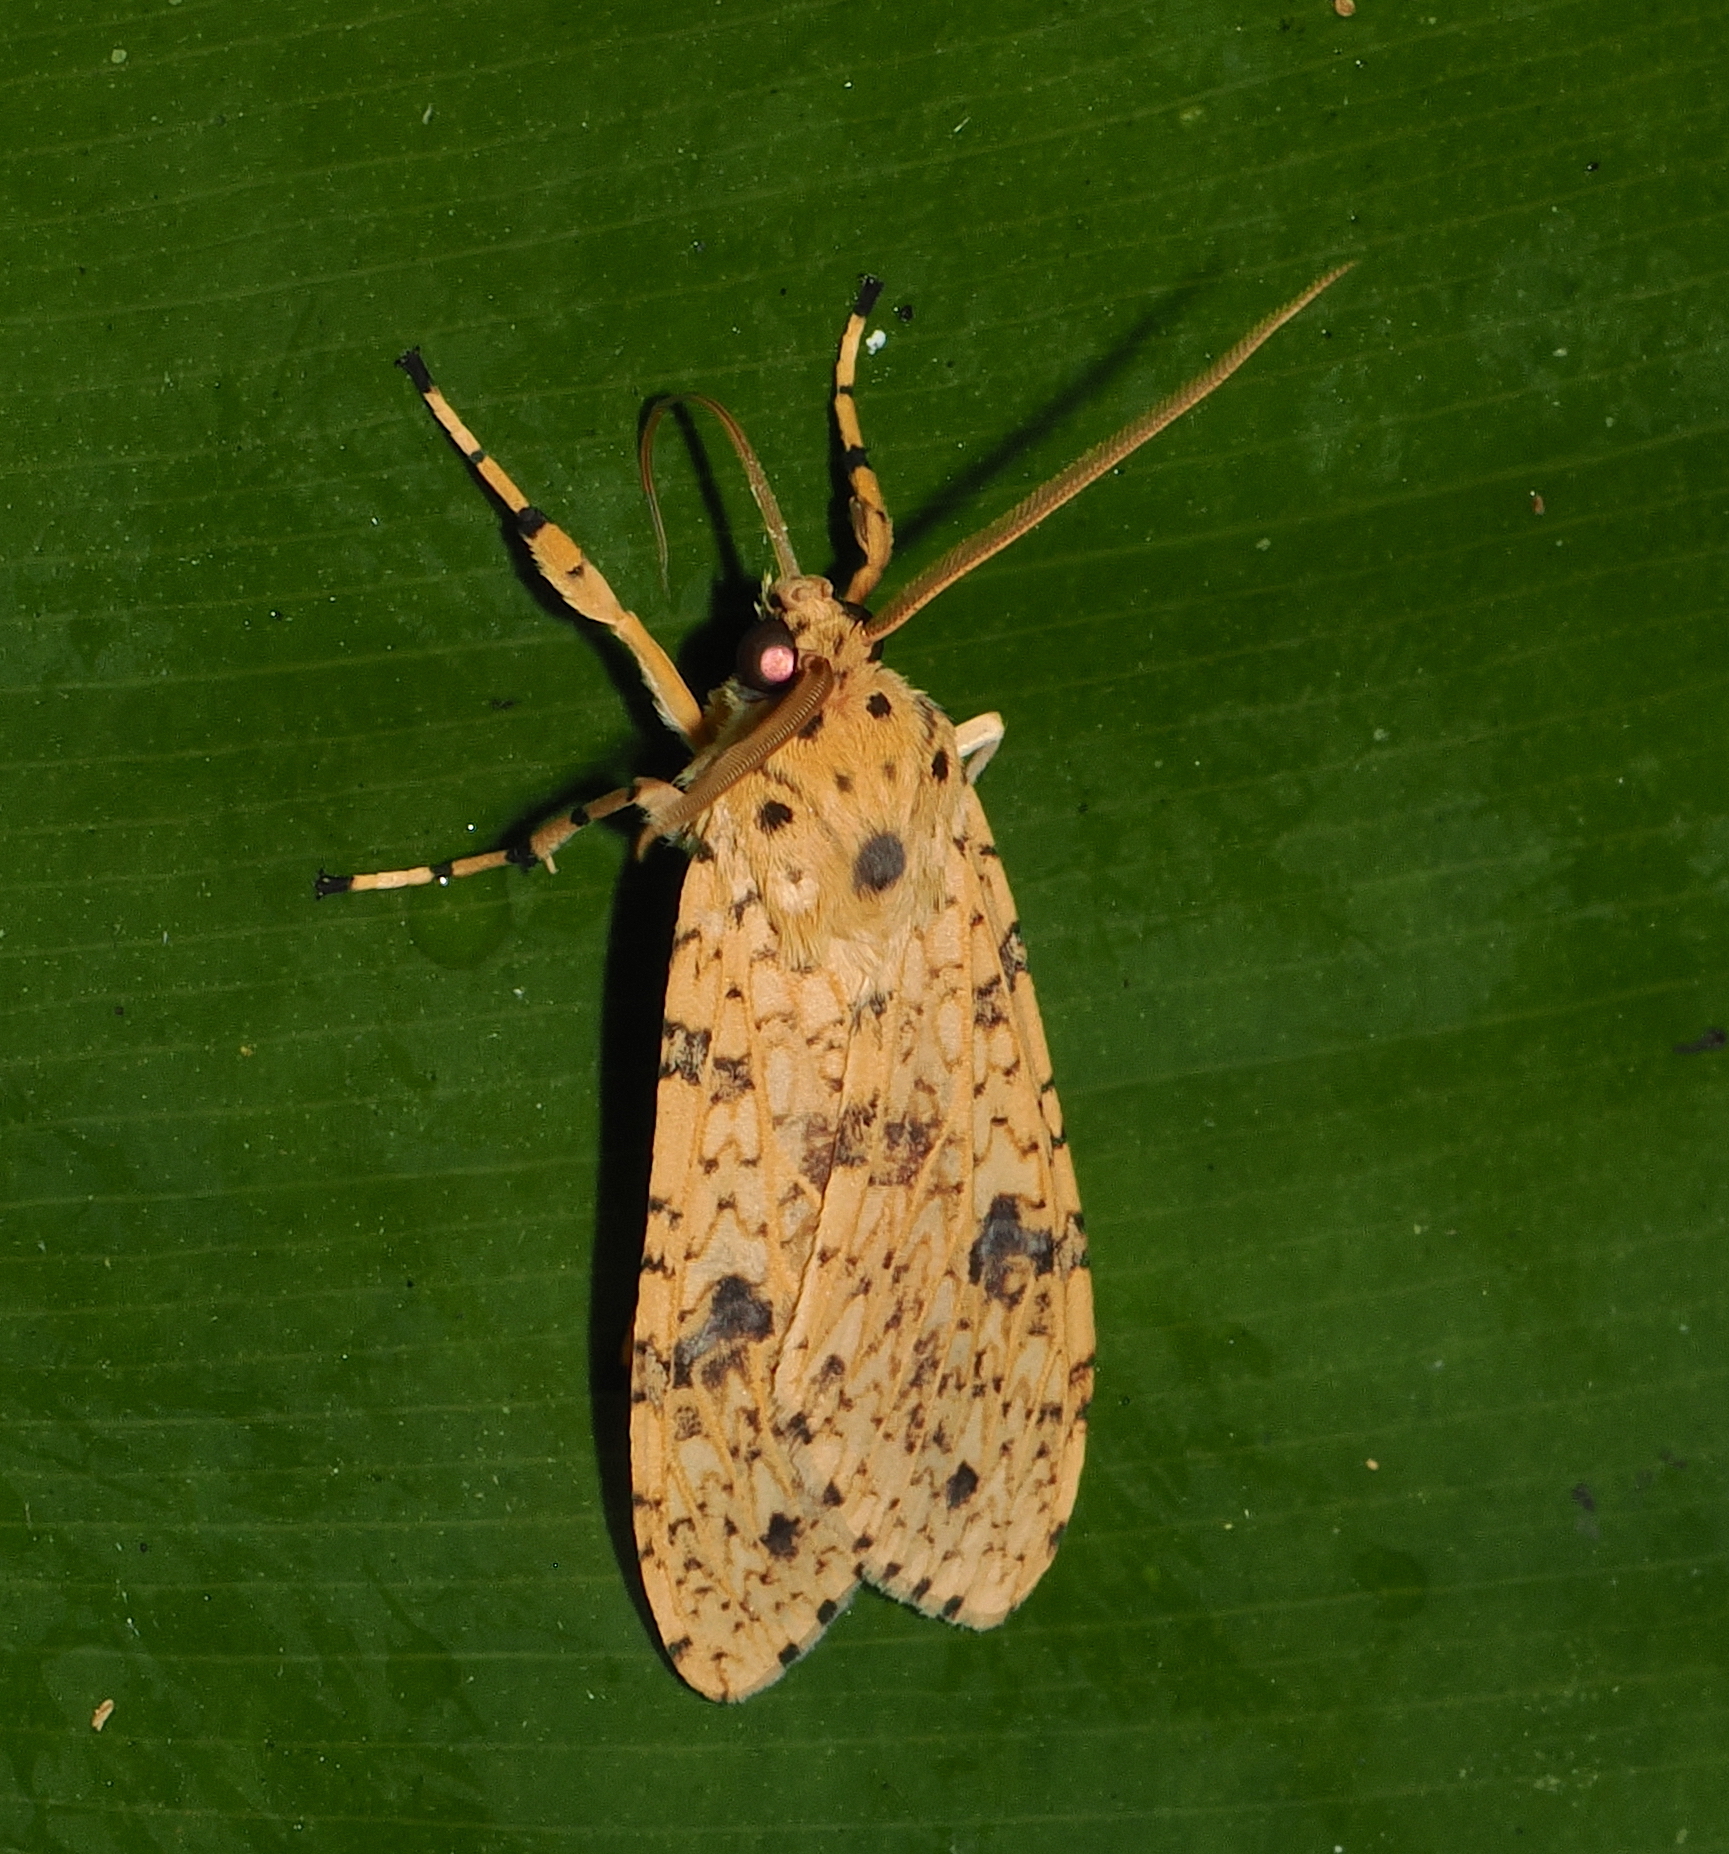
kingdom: Animalia
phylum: Arthropoda
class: Insecta
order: Lepidoptera
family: Erebidae
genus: Lophocampa
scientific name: Lophocampa modesta
